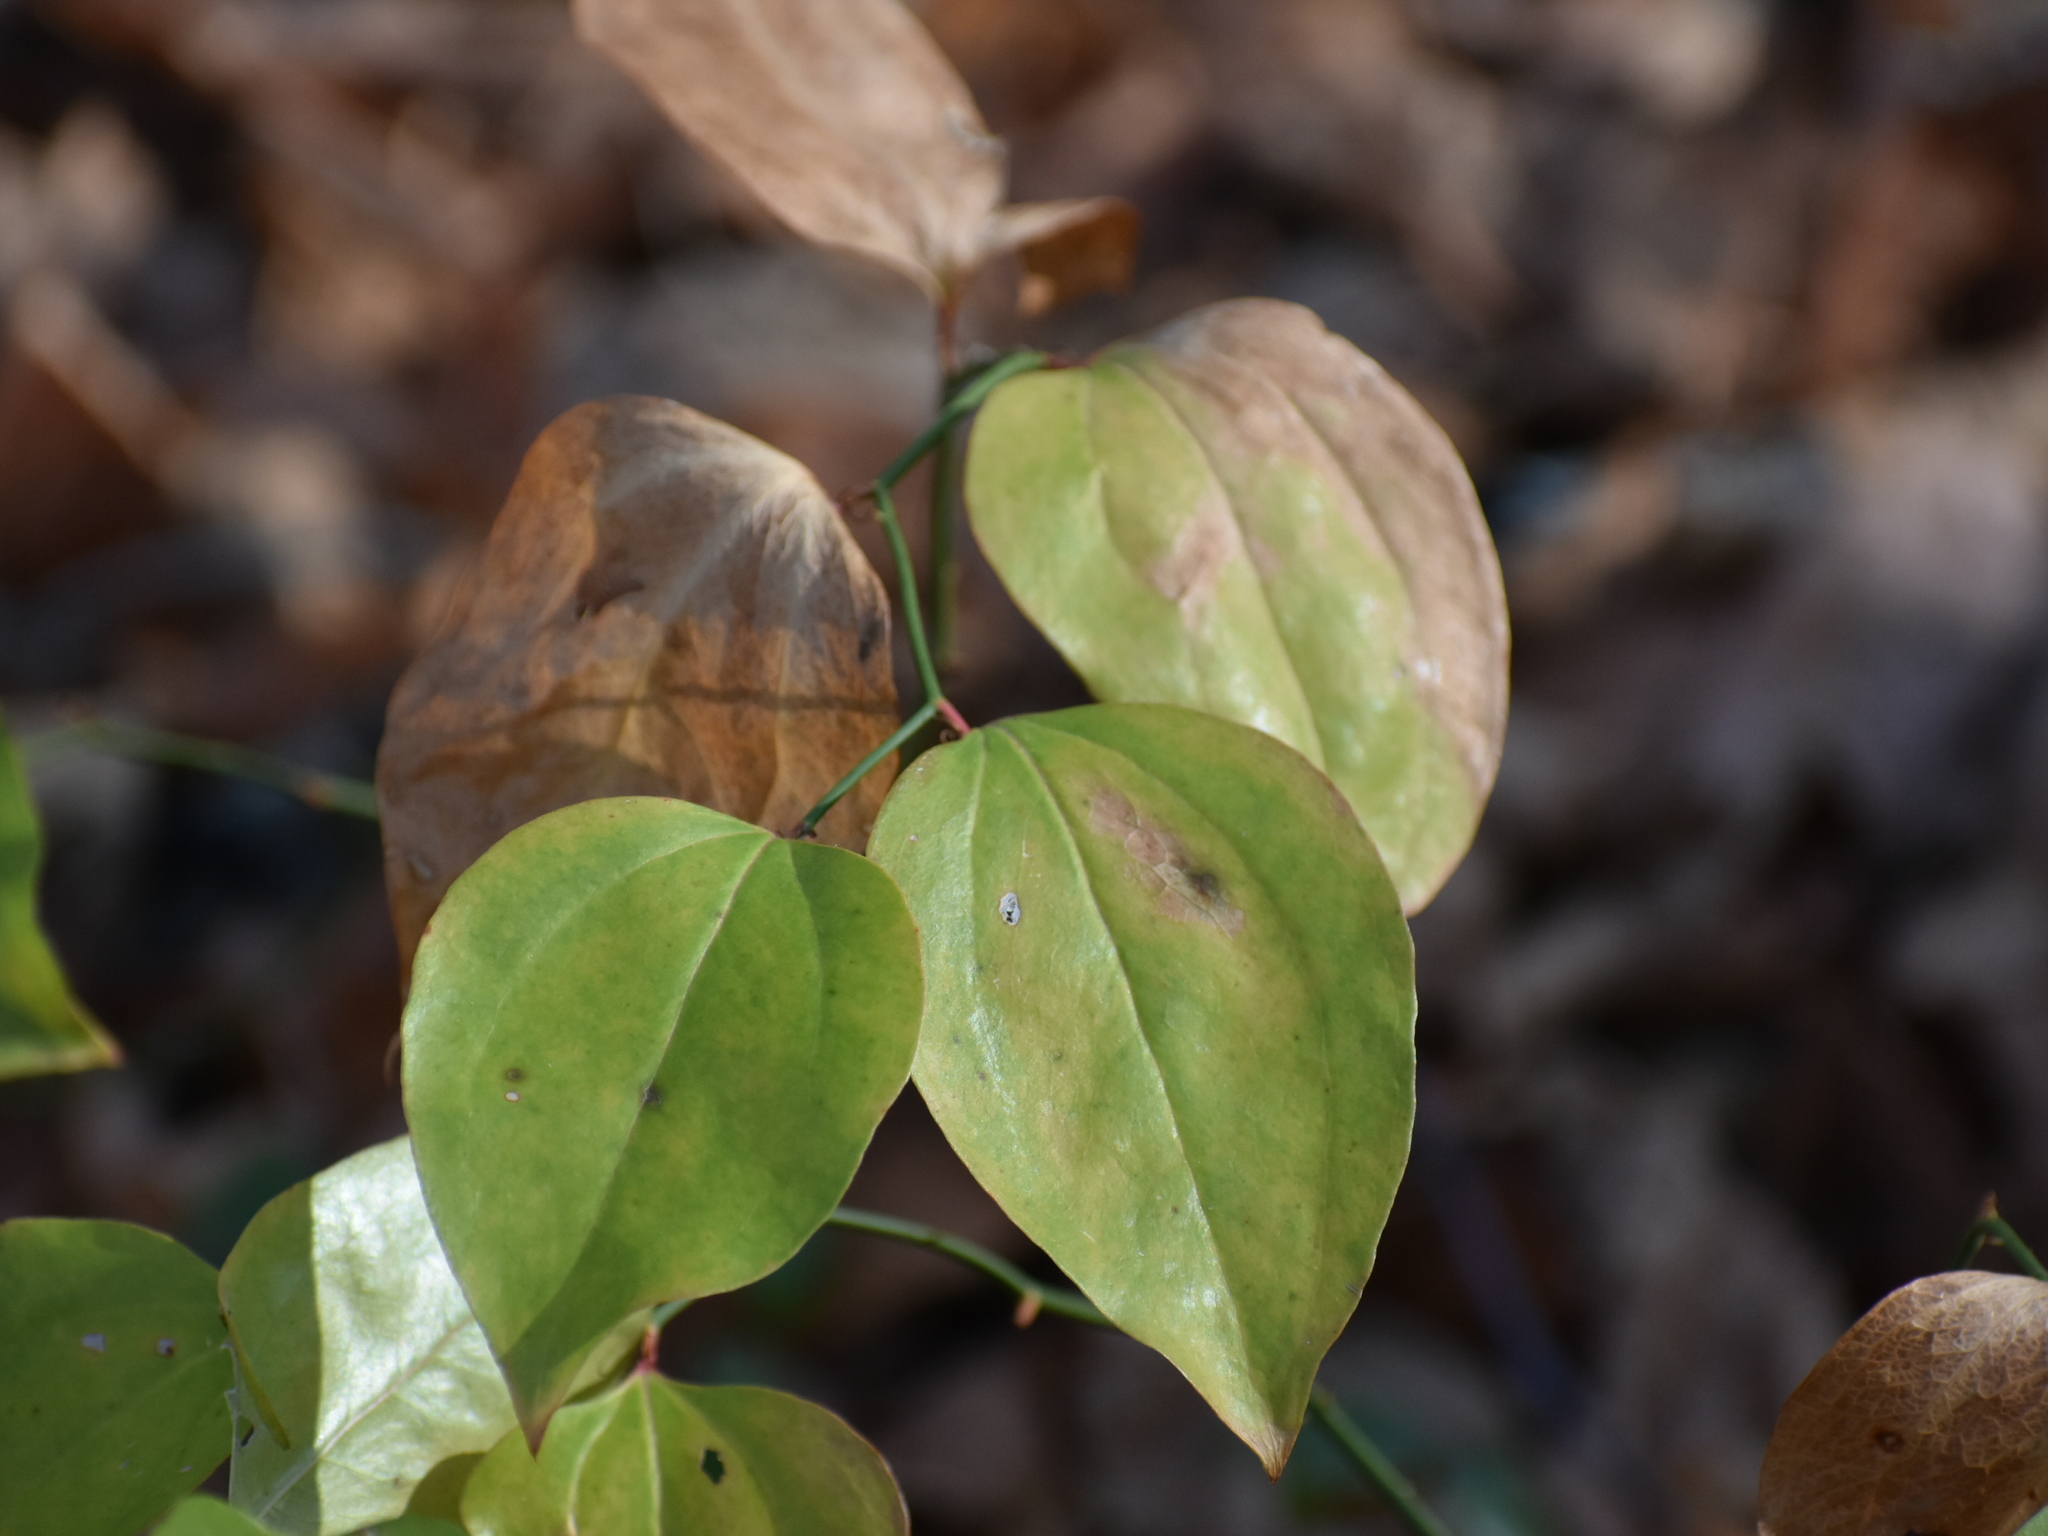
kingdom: Plantae
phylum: Tracheophyta
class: Liliopsida
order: Liliales
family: Smilacaceae
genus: Smilax
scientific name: Smilax rotundifolia
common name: Bullbriar
